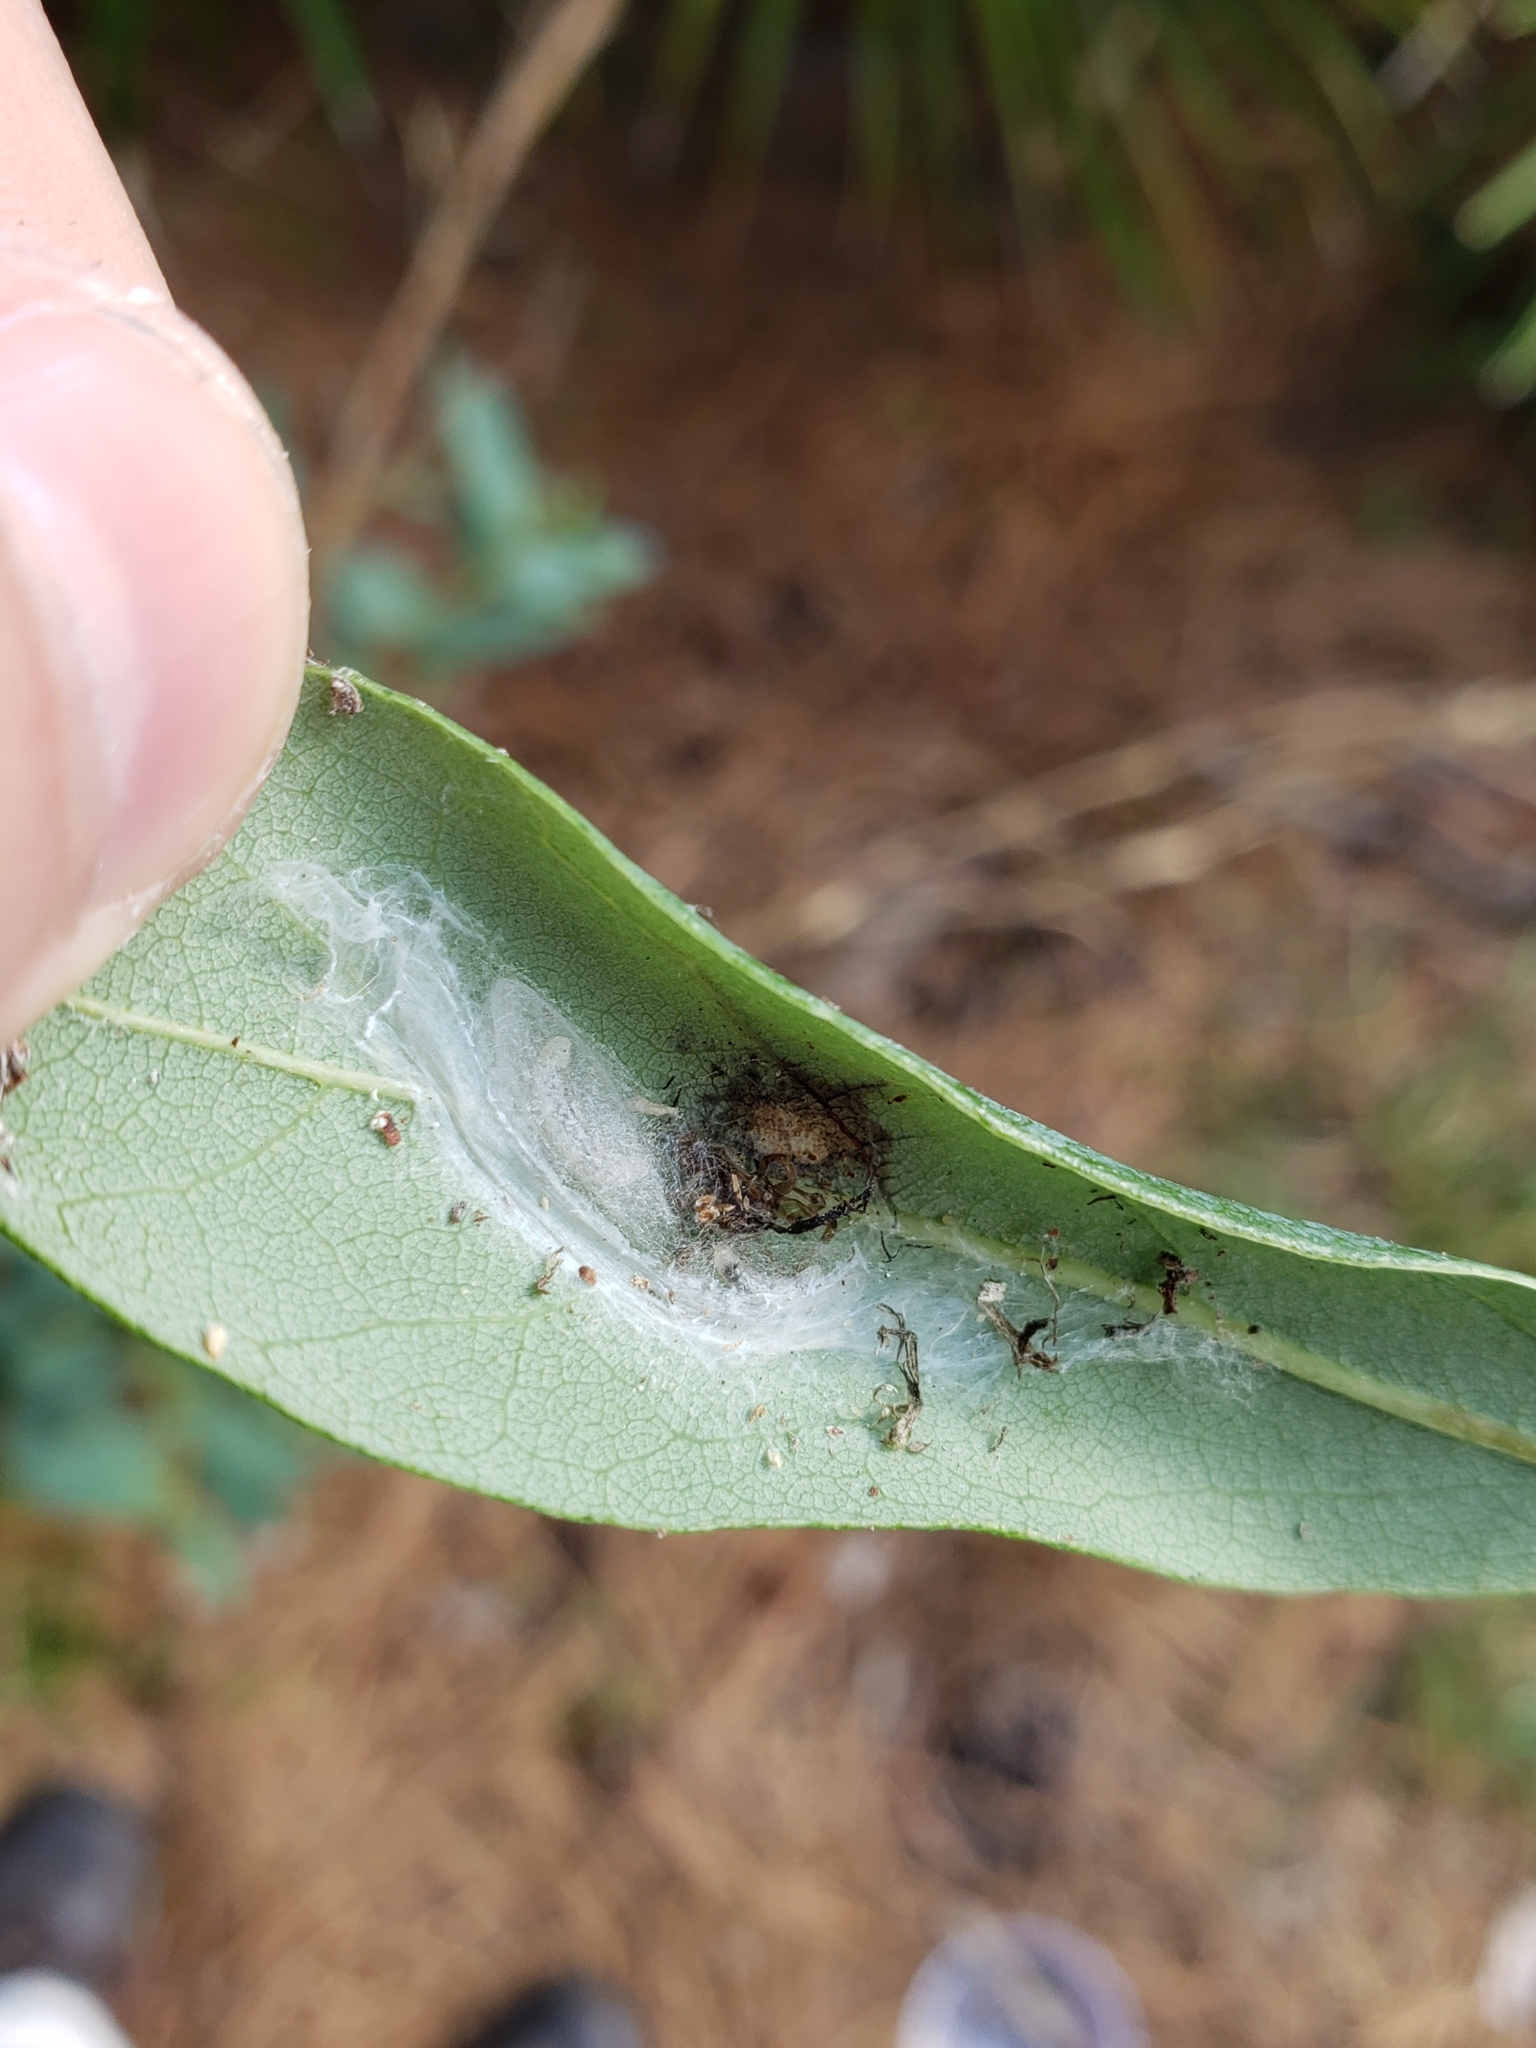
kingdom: Animalia
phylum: Arthropoda
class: Insecta
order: Hymenoptera
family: Ichneumonidae
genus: Zaglyptus
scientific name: Zaglyptus pictilis
